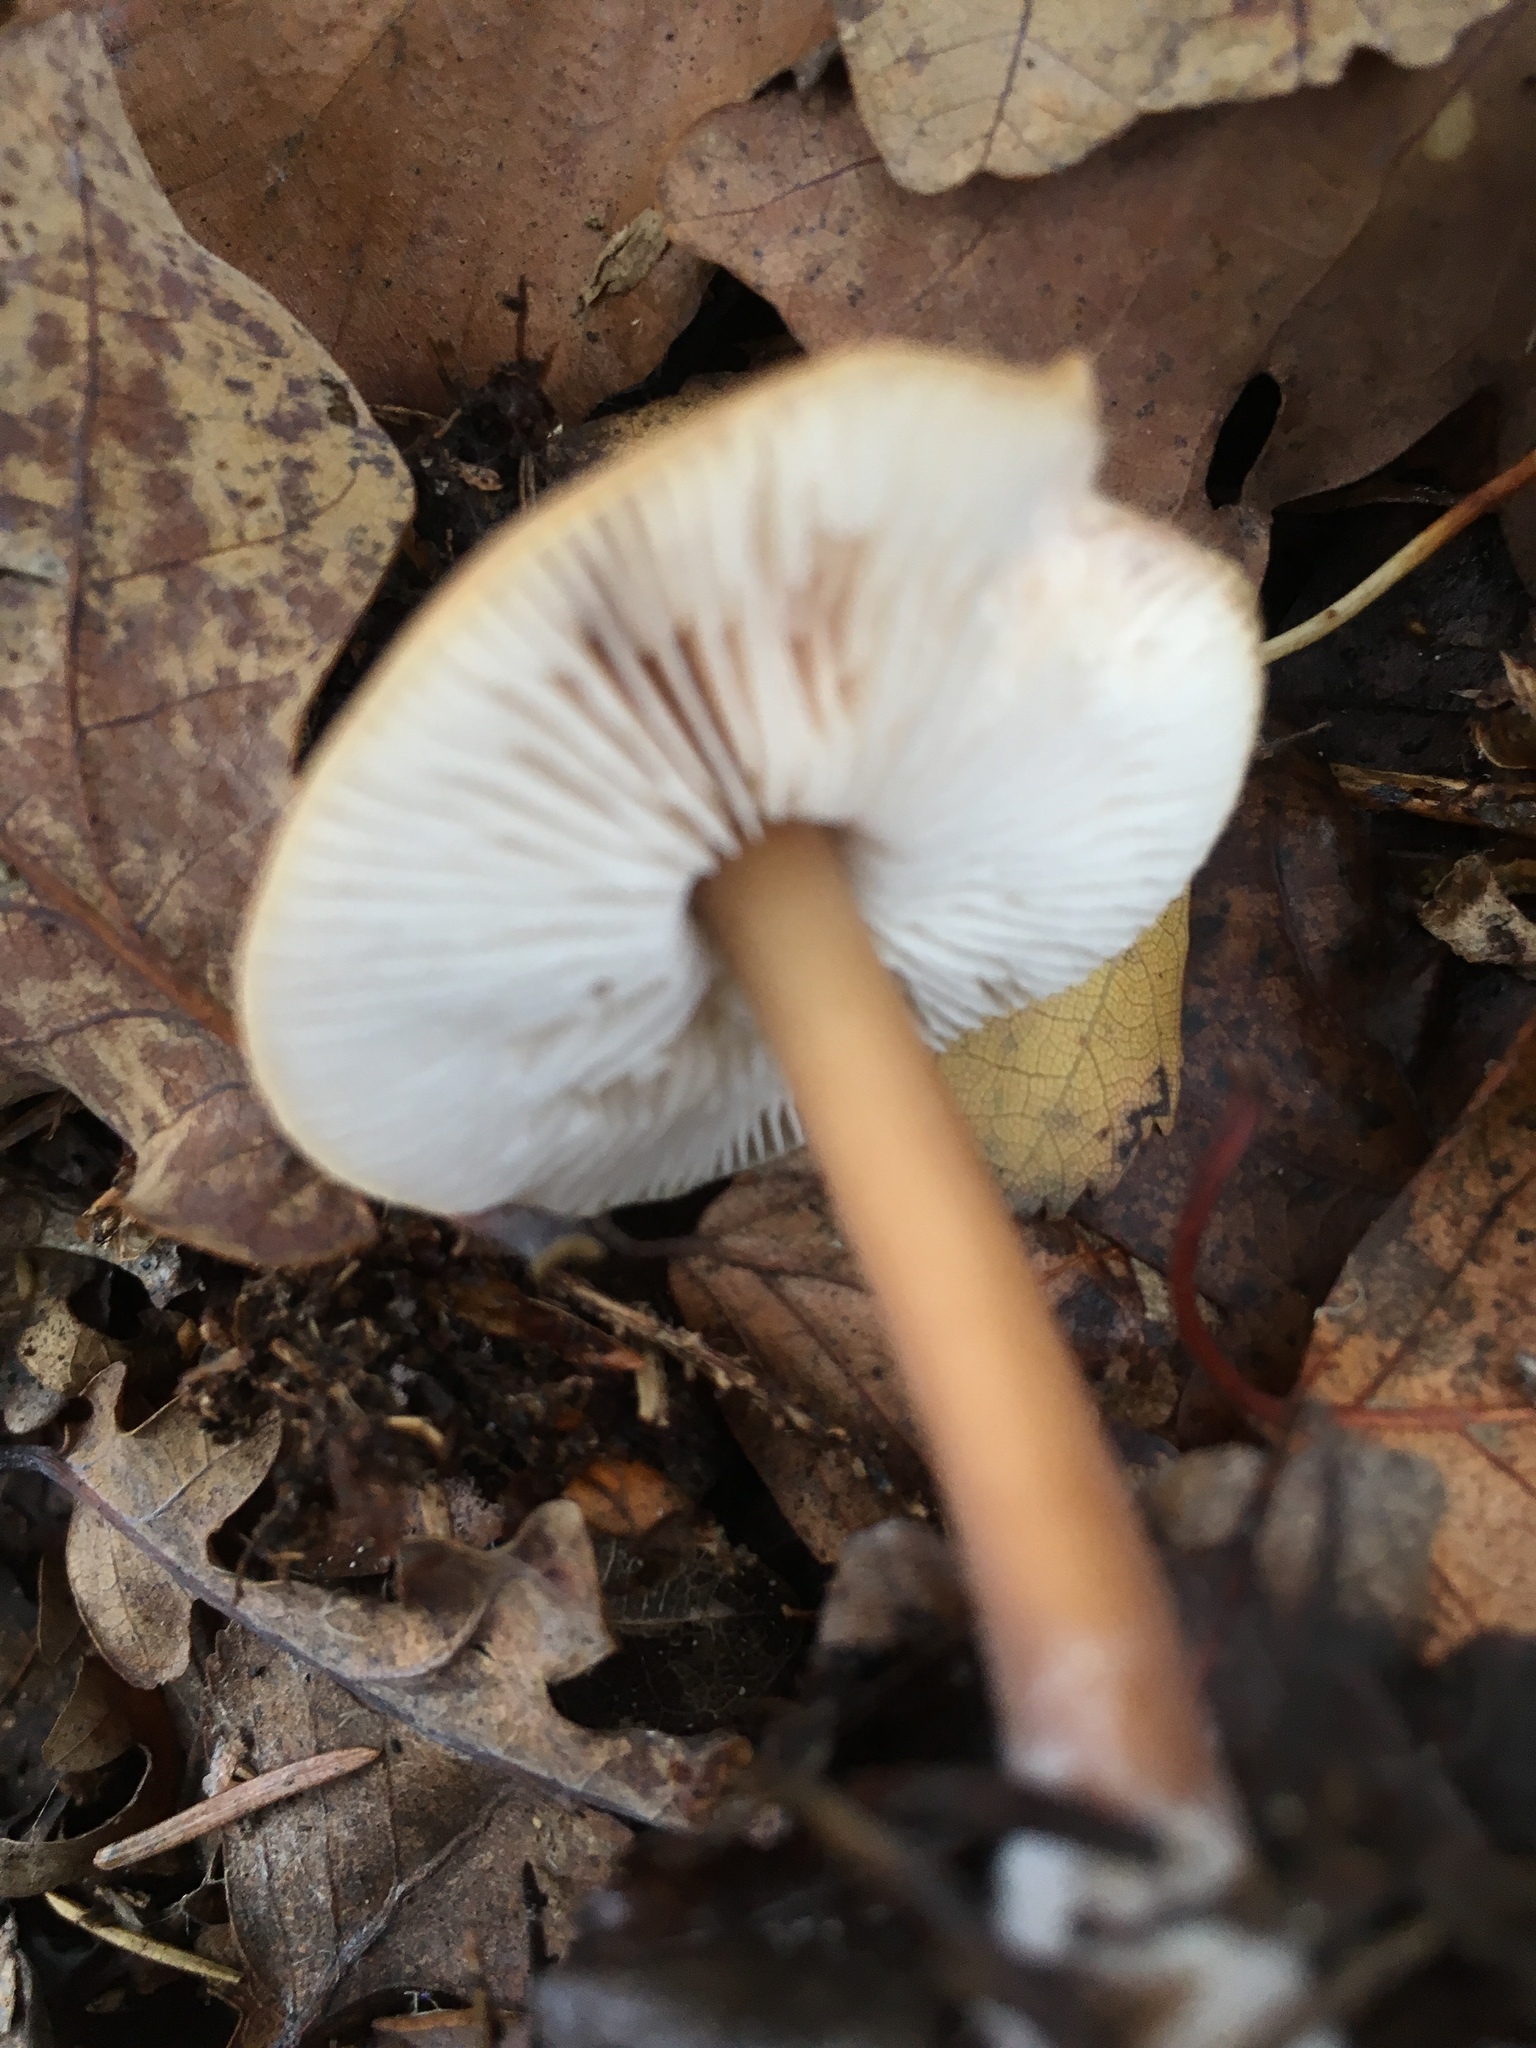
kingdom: Fungi
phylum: Basidiomycota
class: Agaricomycetes
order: Agaricales
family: Omphalotaceae
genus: Rhodocollybia
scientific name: Rhodocollybia butyracea
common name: Butter cap
